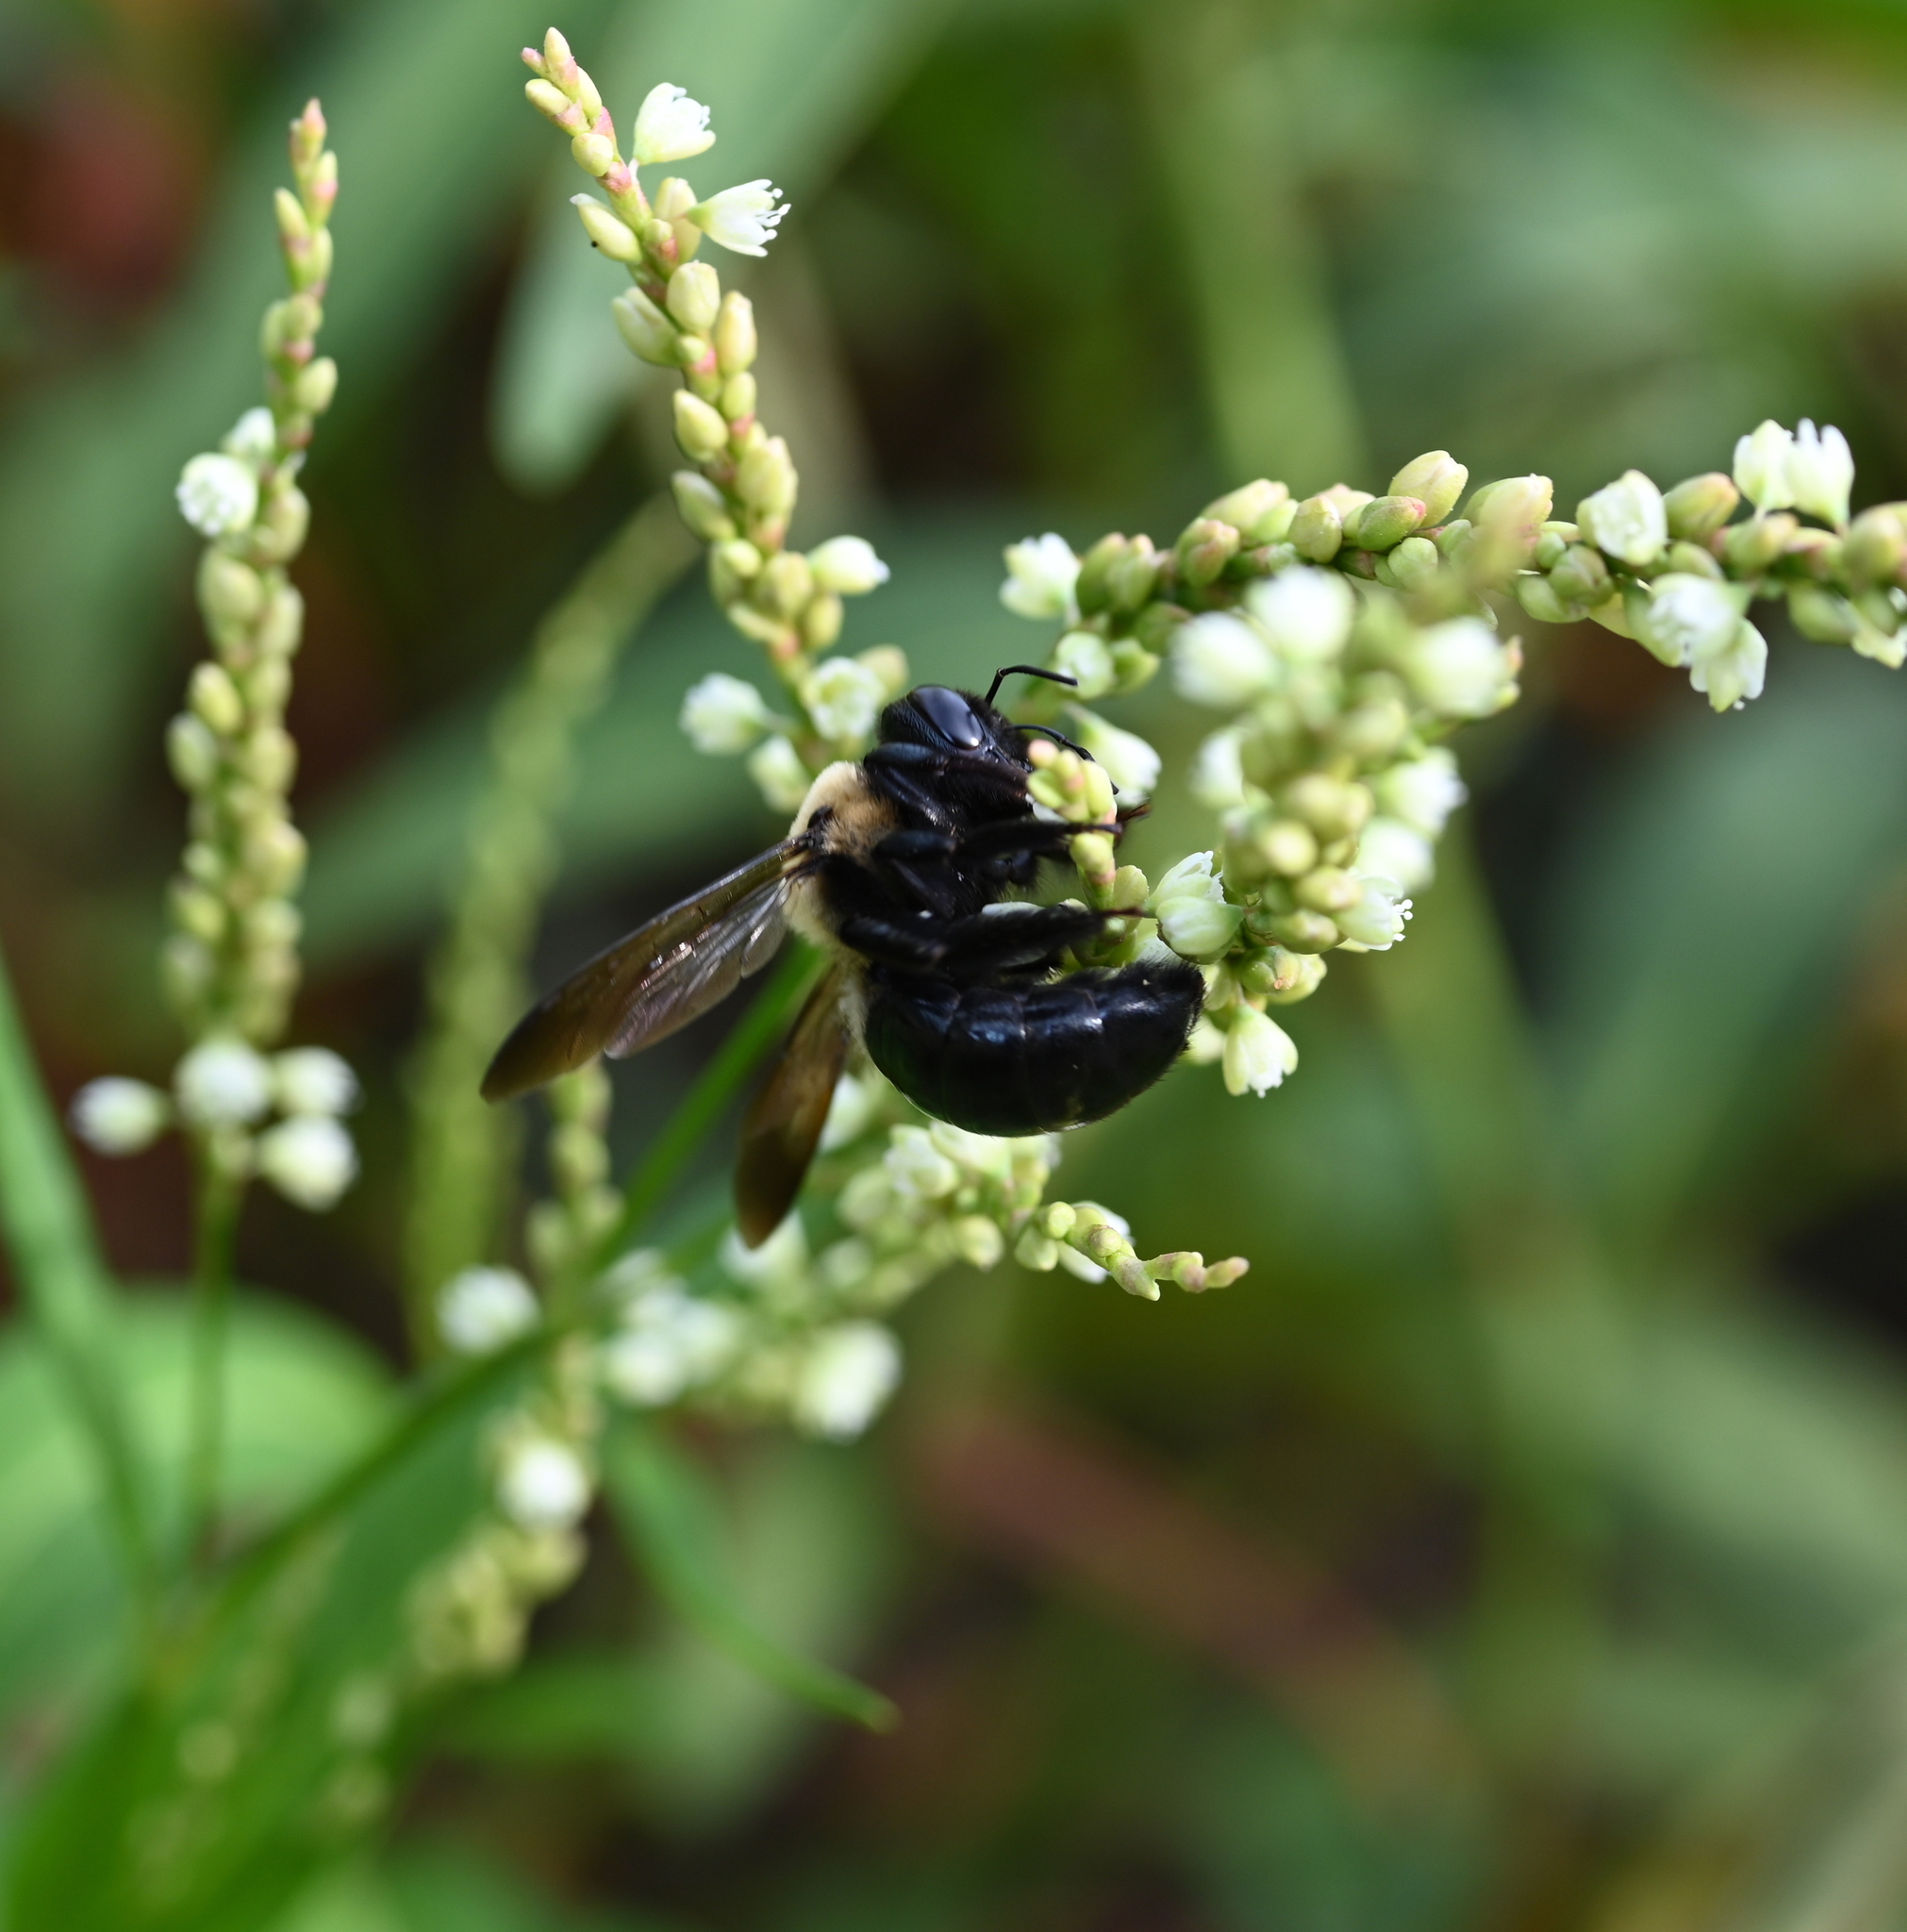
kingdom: Animalia
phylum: Arthropoda
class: Insecta
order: Hymenoptera
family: Apidae
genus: Xylocopa
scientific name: Xylocopa virginica
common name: Carpenter bee
